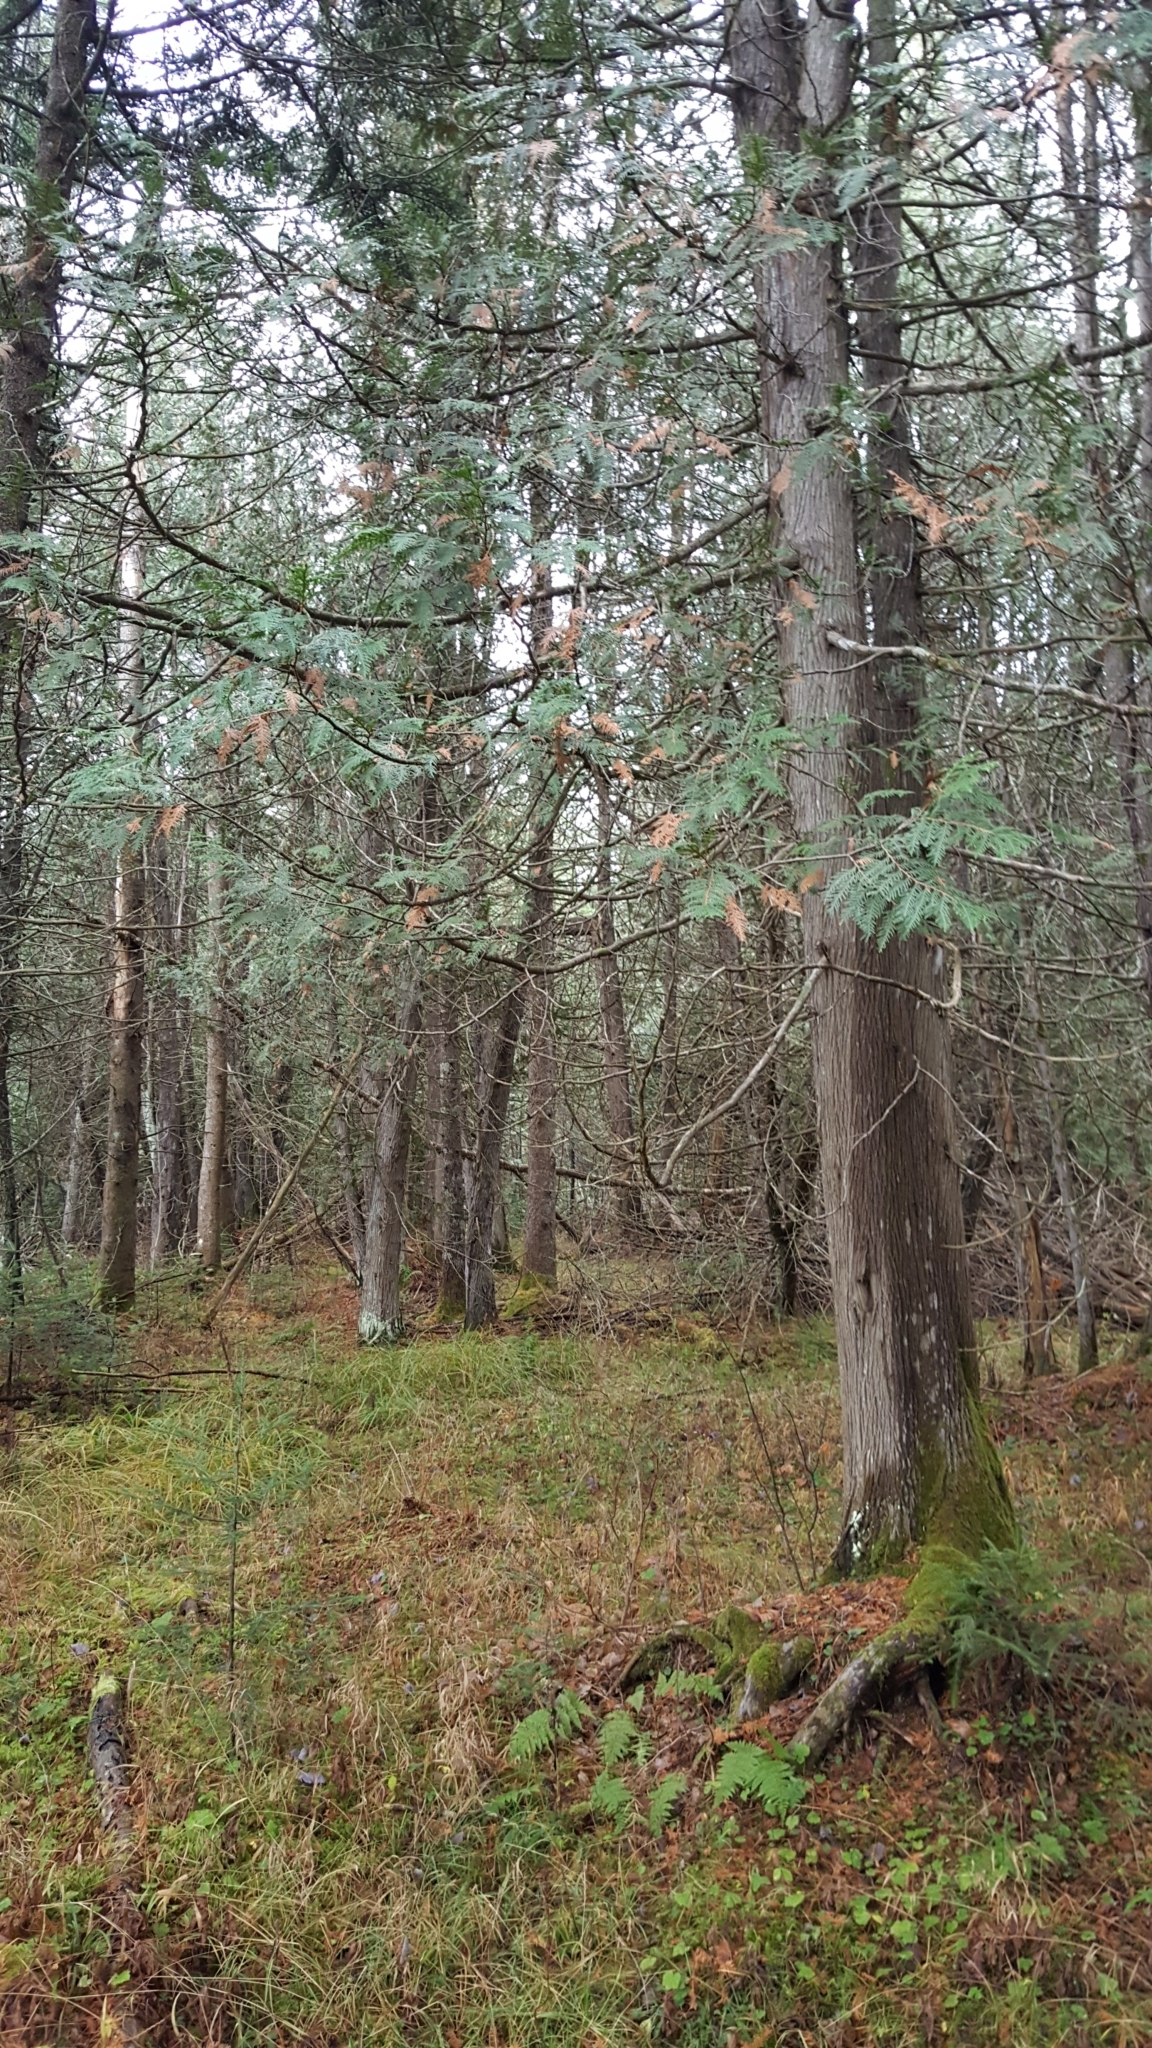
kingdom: Plantae
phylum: Tracheophyta
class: Pinopsida
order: Pinales
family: Cupressaceae
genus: Thuja
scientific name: Thuja occidentalis
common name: Northern white-cedar
